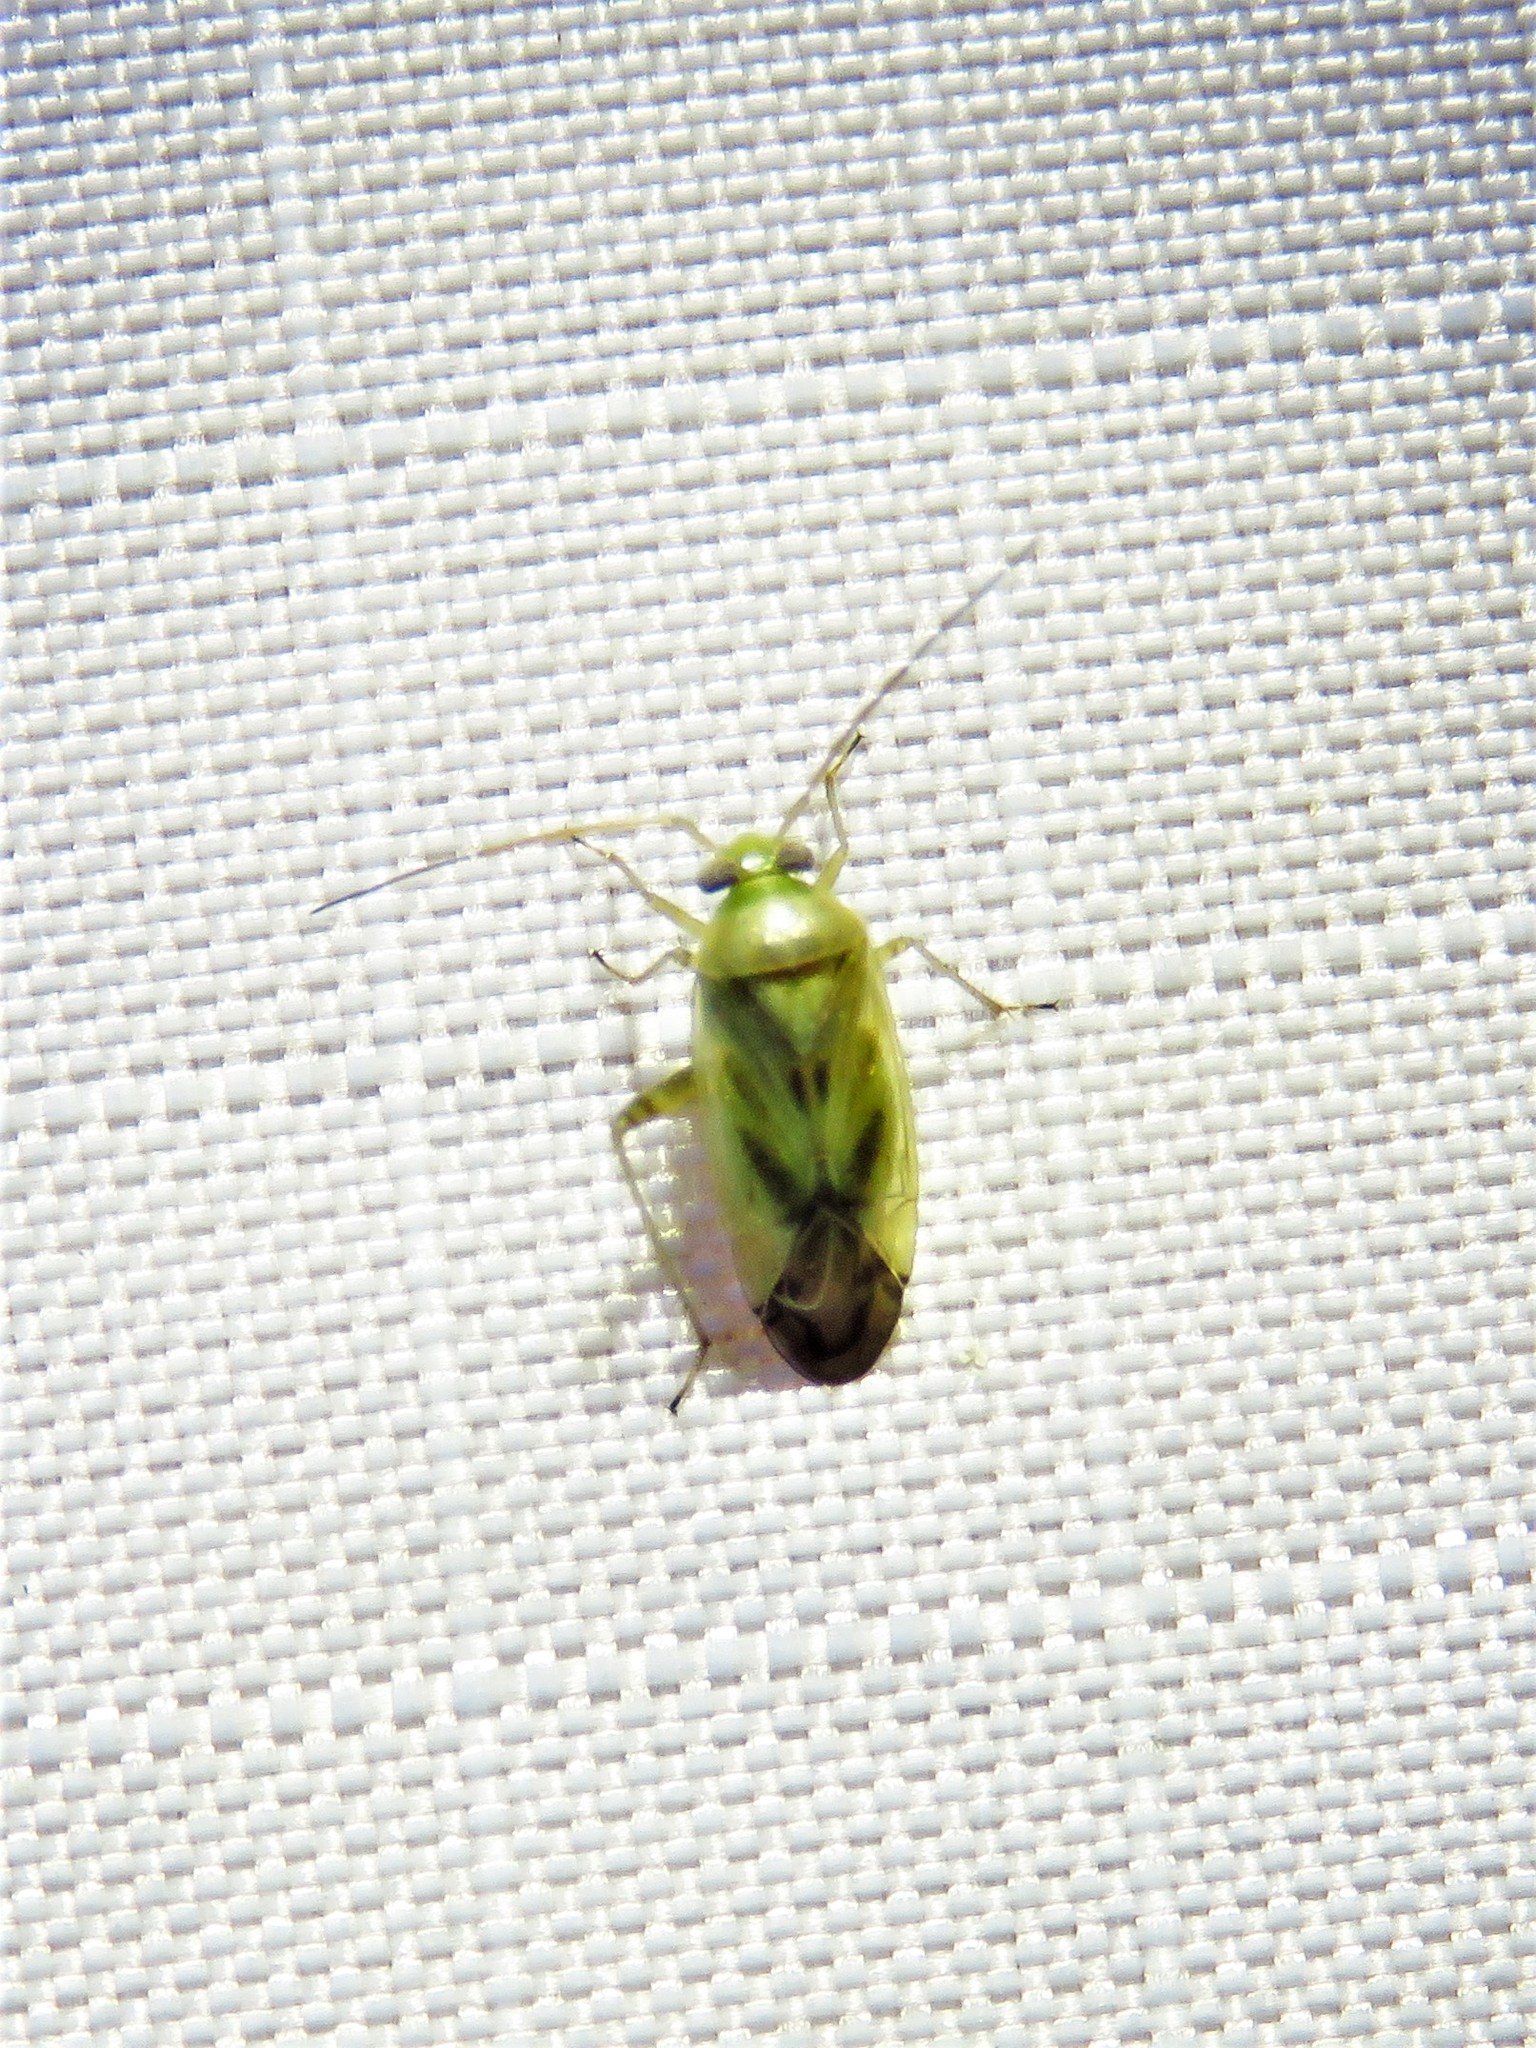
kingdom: Animalia
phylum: Arthropoda
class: Insecta
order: Hemiptera
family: Miridae
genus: Taylorilygus
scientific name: Taylorilygus apicalis
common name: Plant bug
